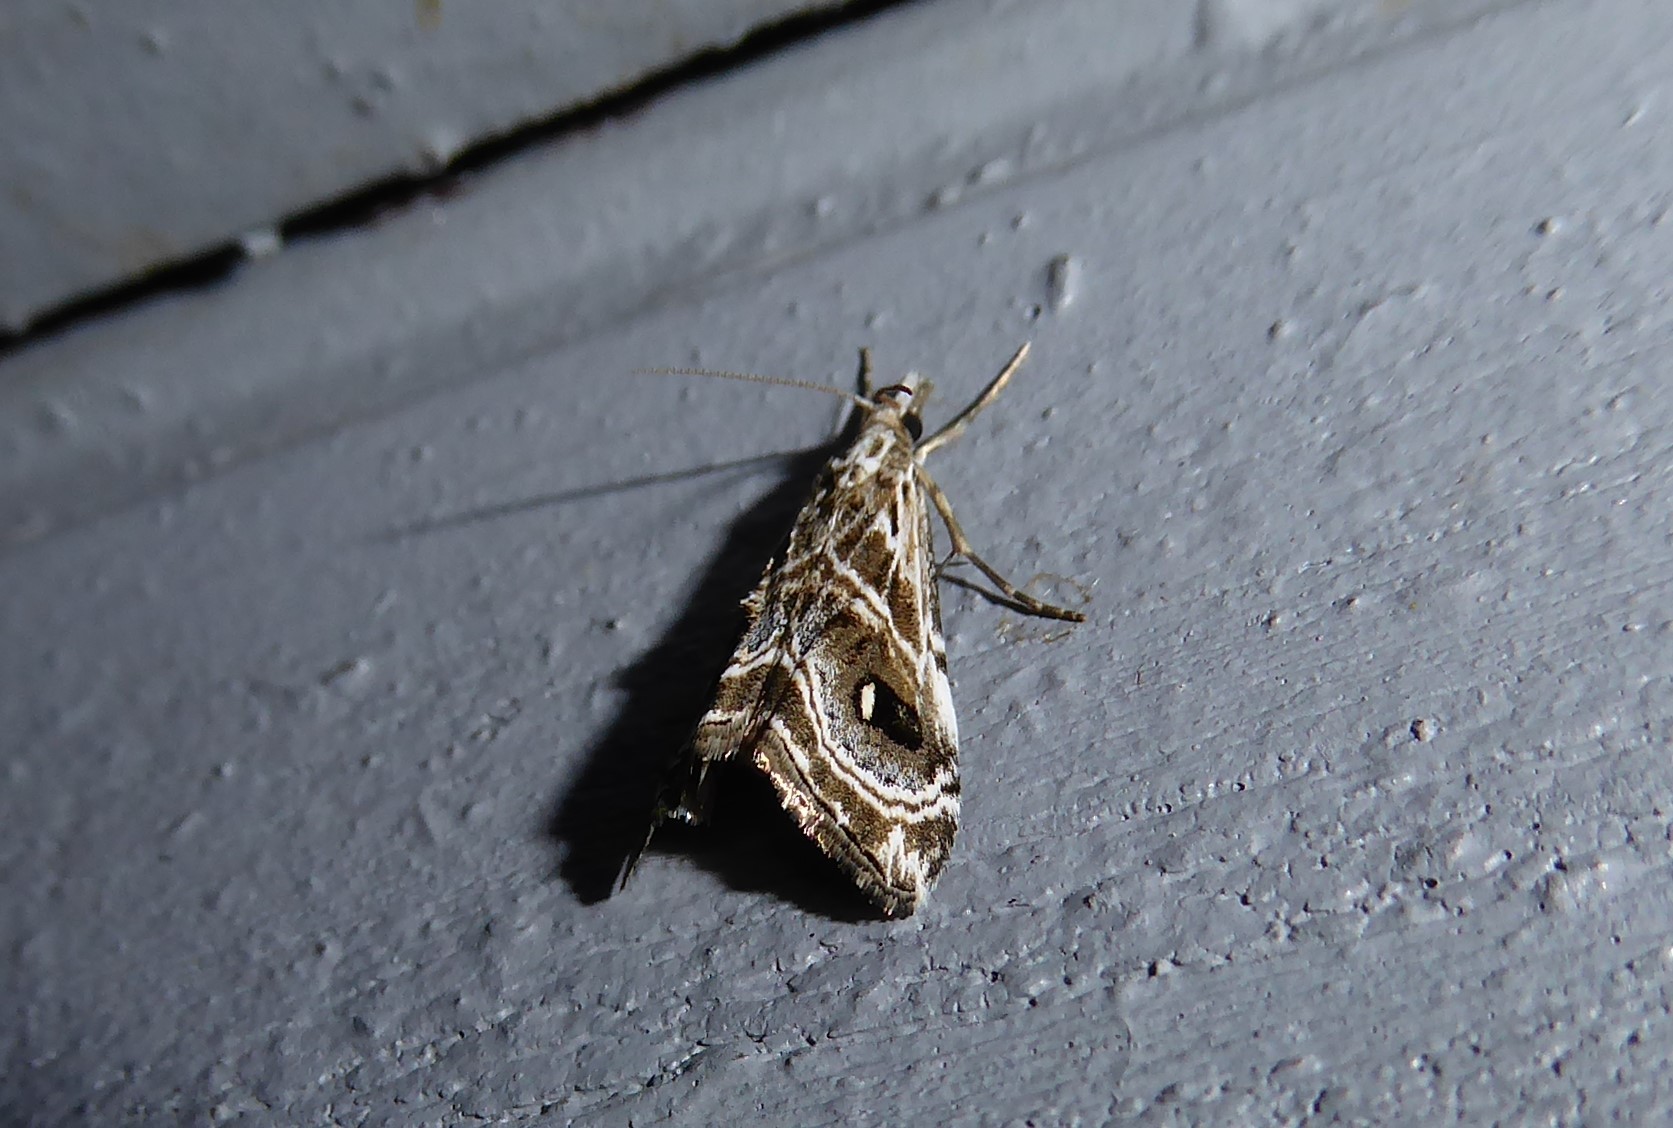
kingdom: Animalia
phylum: Arthropoda
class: Insecta
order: Lepidoptera
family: Crambidae
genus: Gadira
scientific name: Gadira acerella
